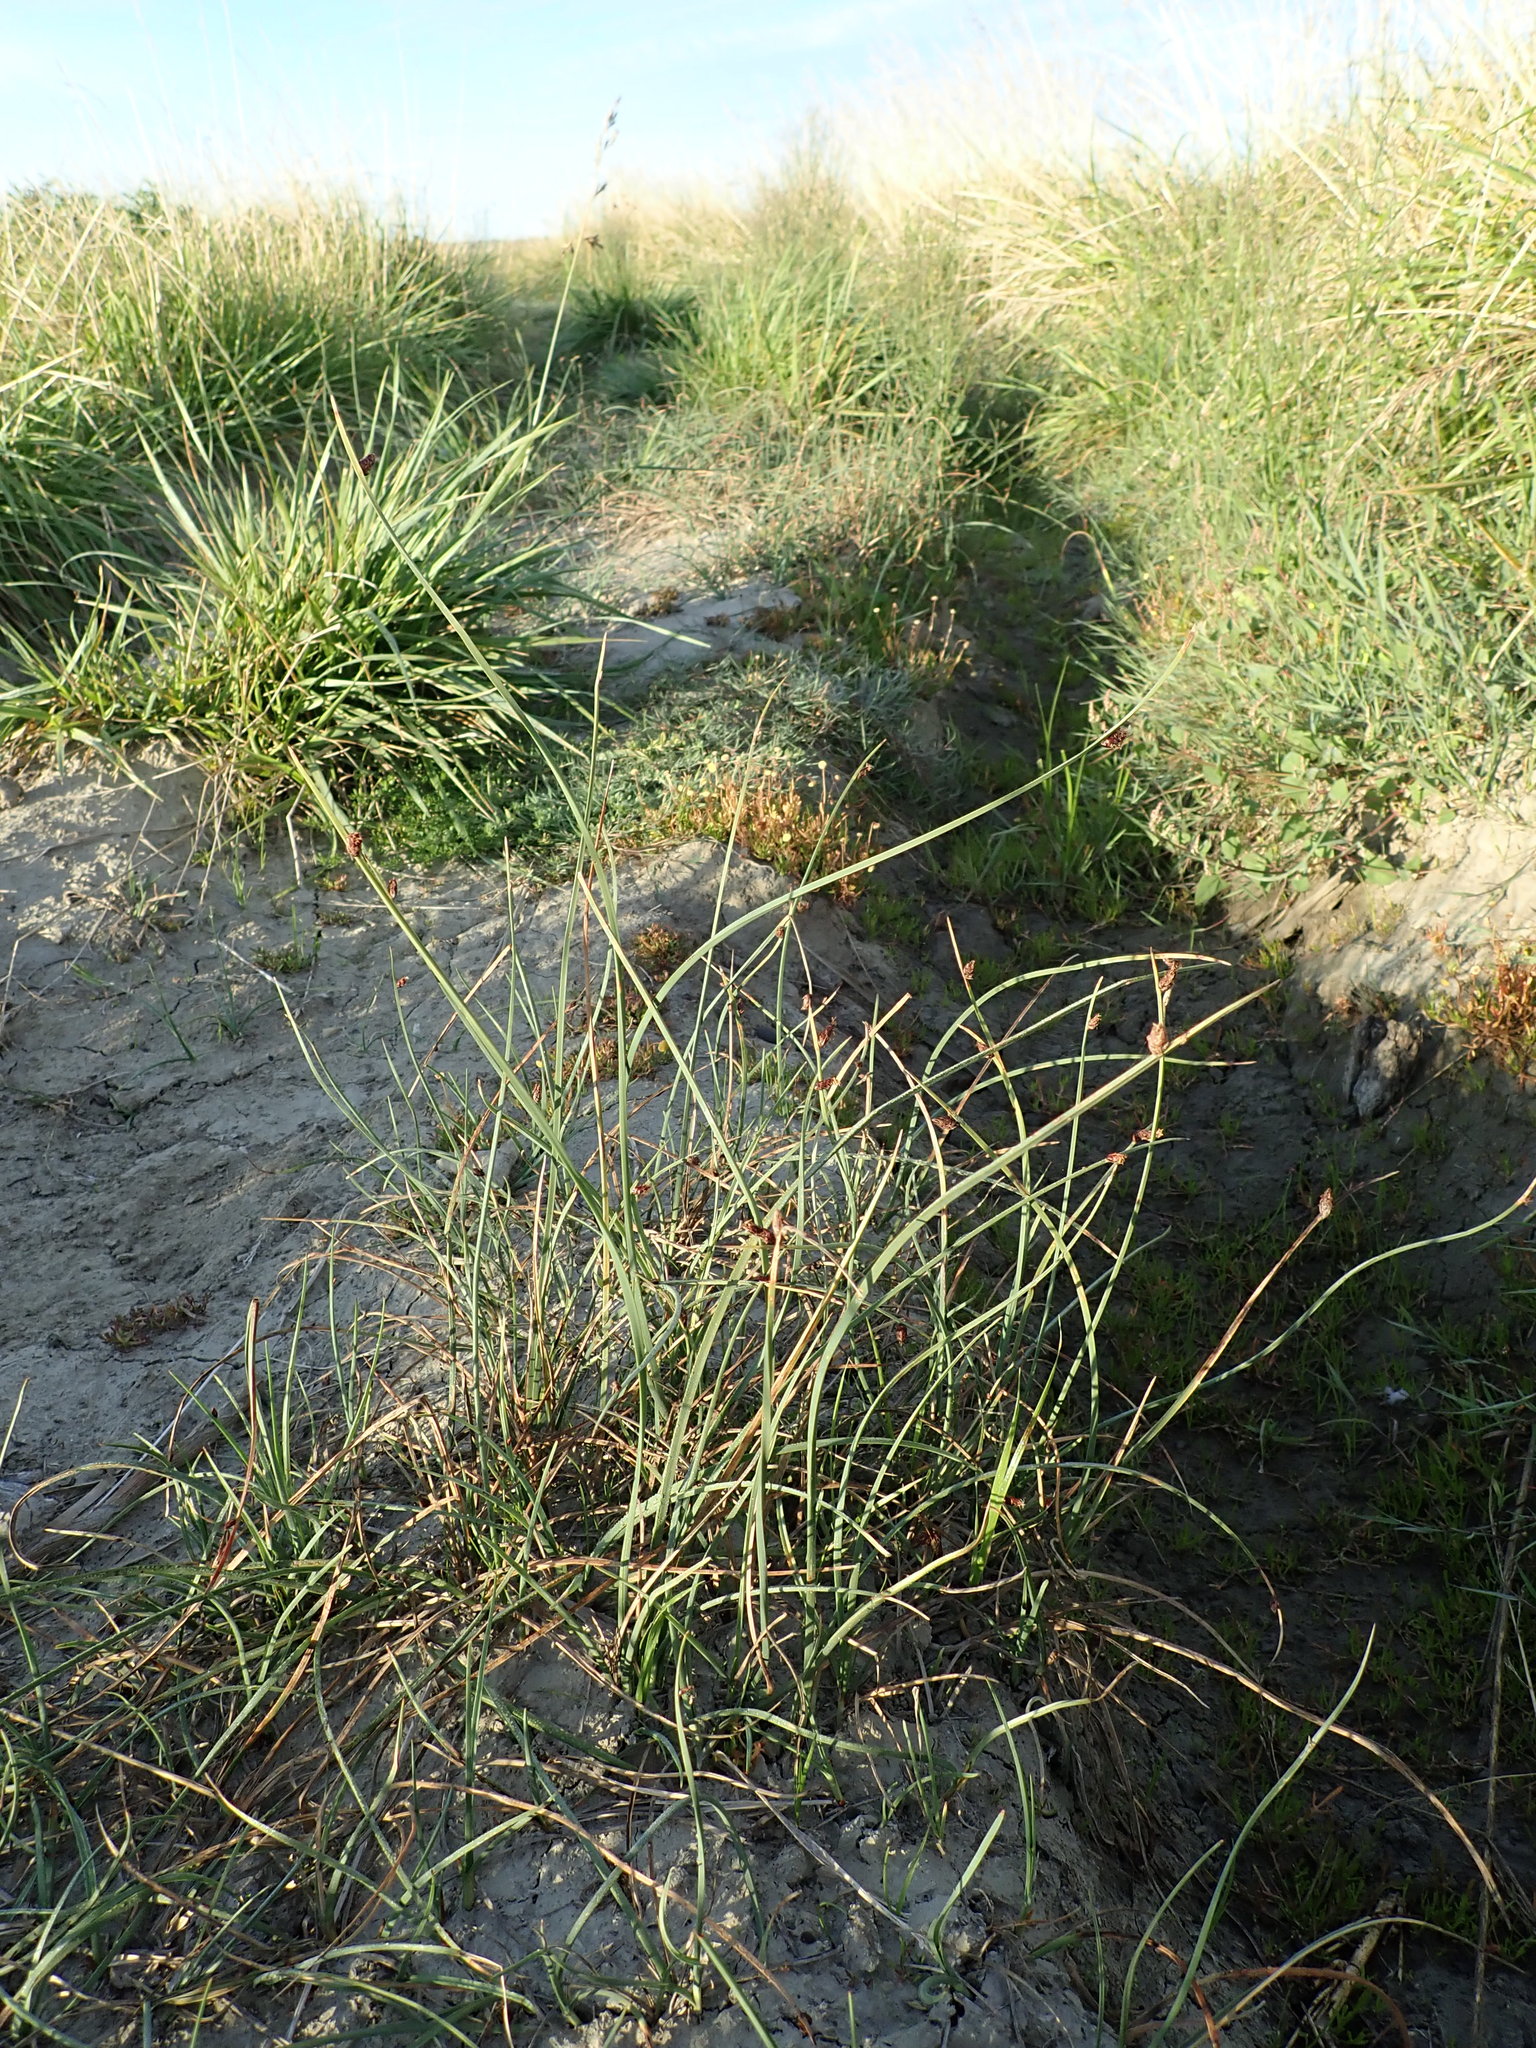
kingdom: Plantae
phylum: Tracheophyta
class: Liliopsida
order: Poales
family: Cyperaceae
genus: Schoenoplectus
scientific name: Schoenoplectus pungens
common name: Sharp club-rush
